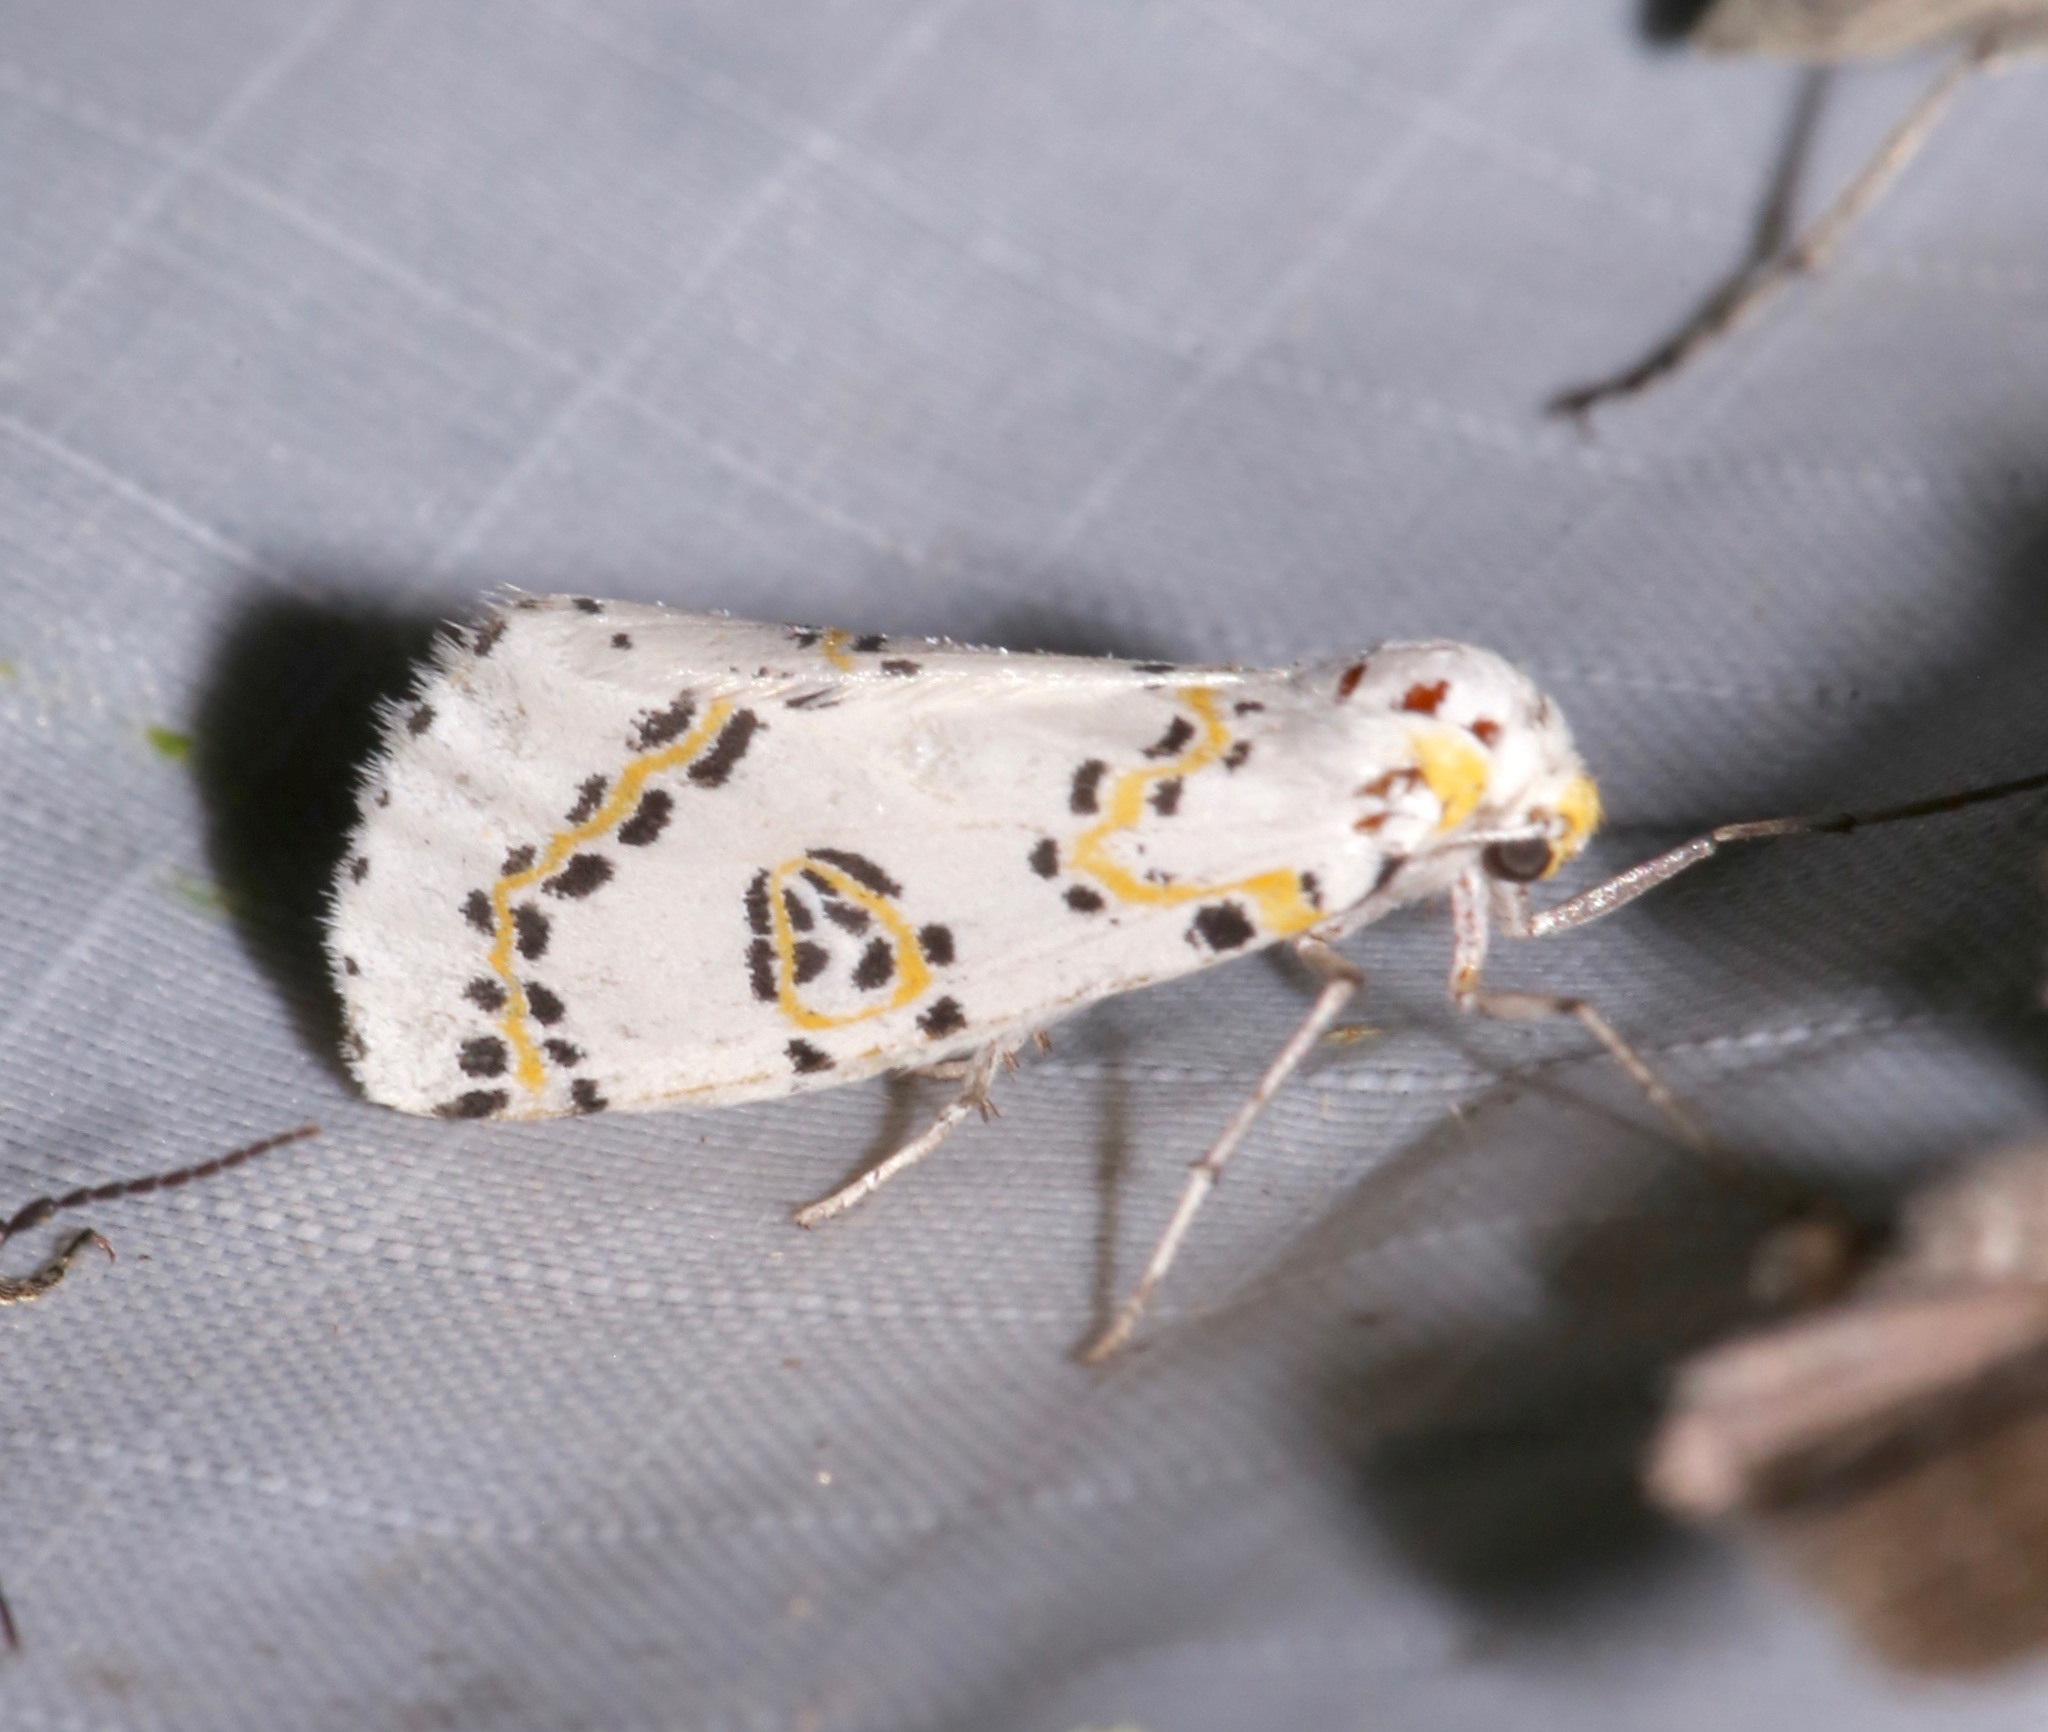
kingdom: Animalia
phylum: Arthropoda
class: Insecta
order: Lepidoptera
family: Geometridae
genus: Philtraea
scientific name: Philtraea elegantaria
